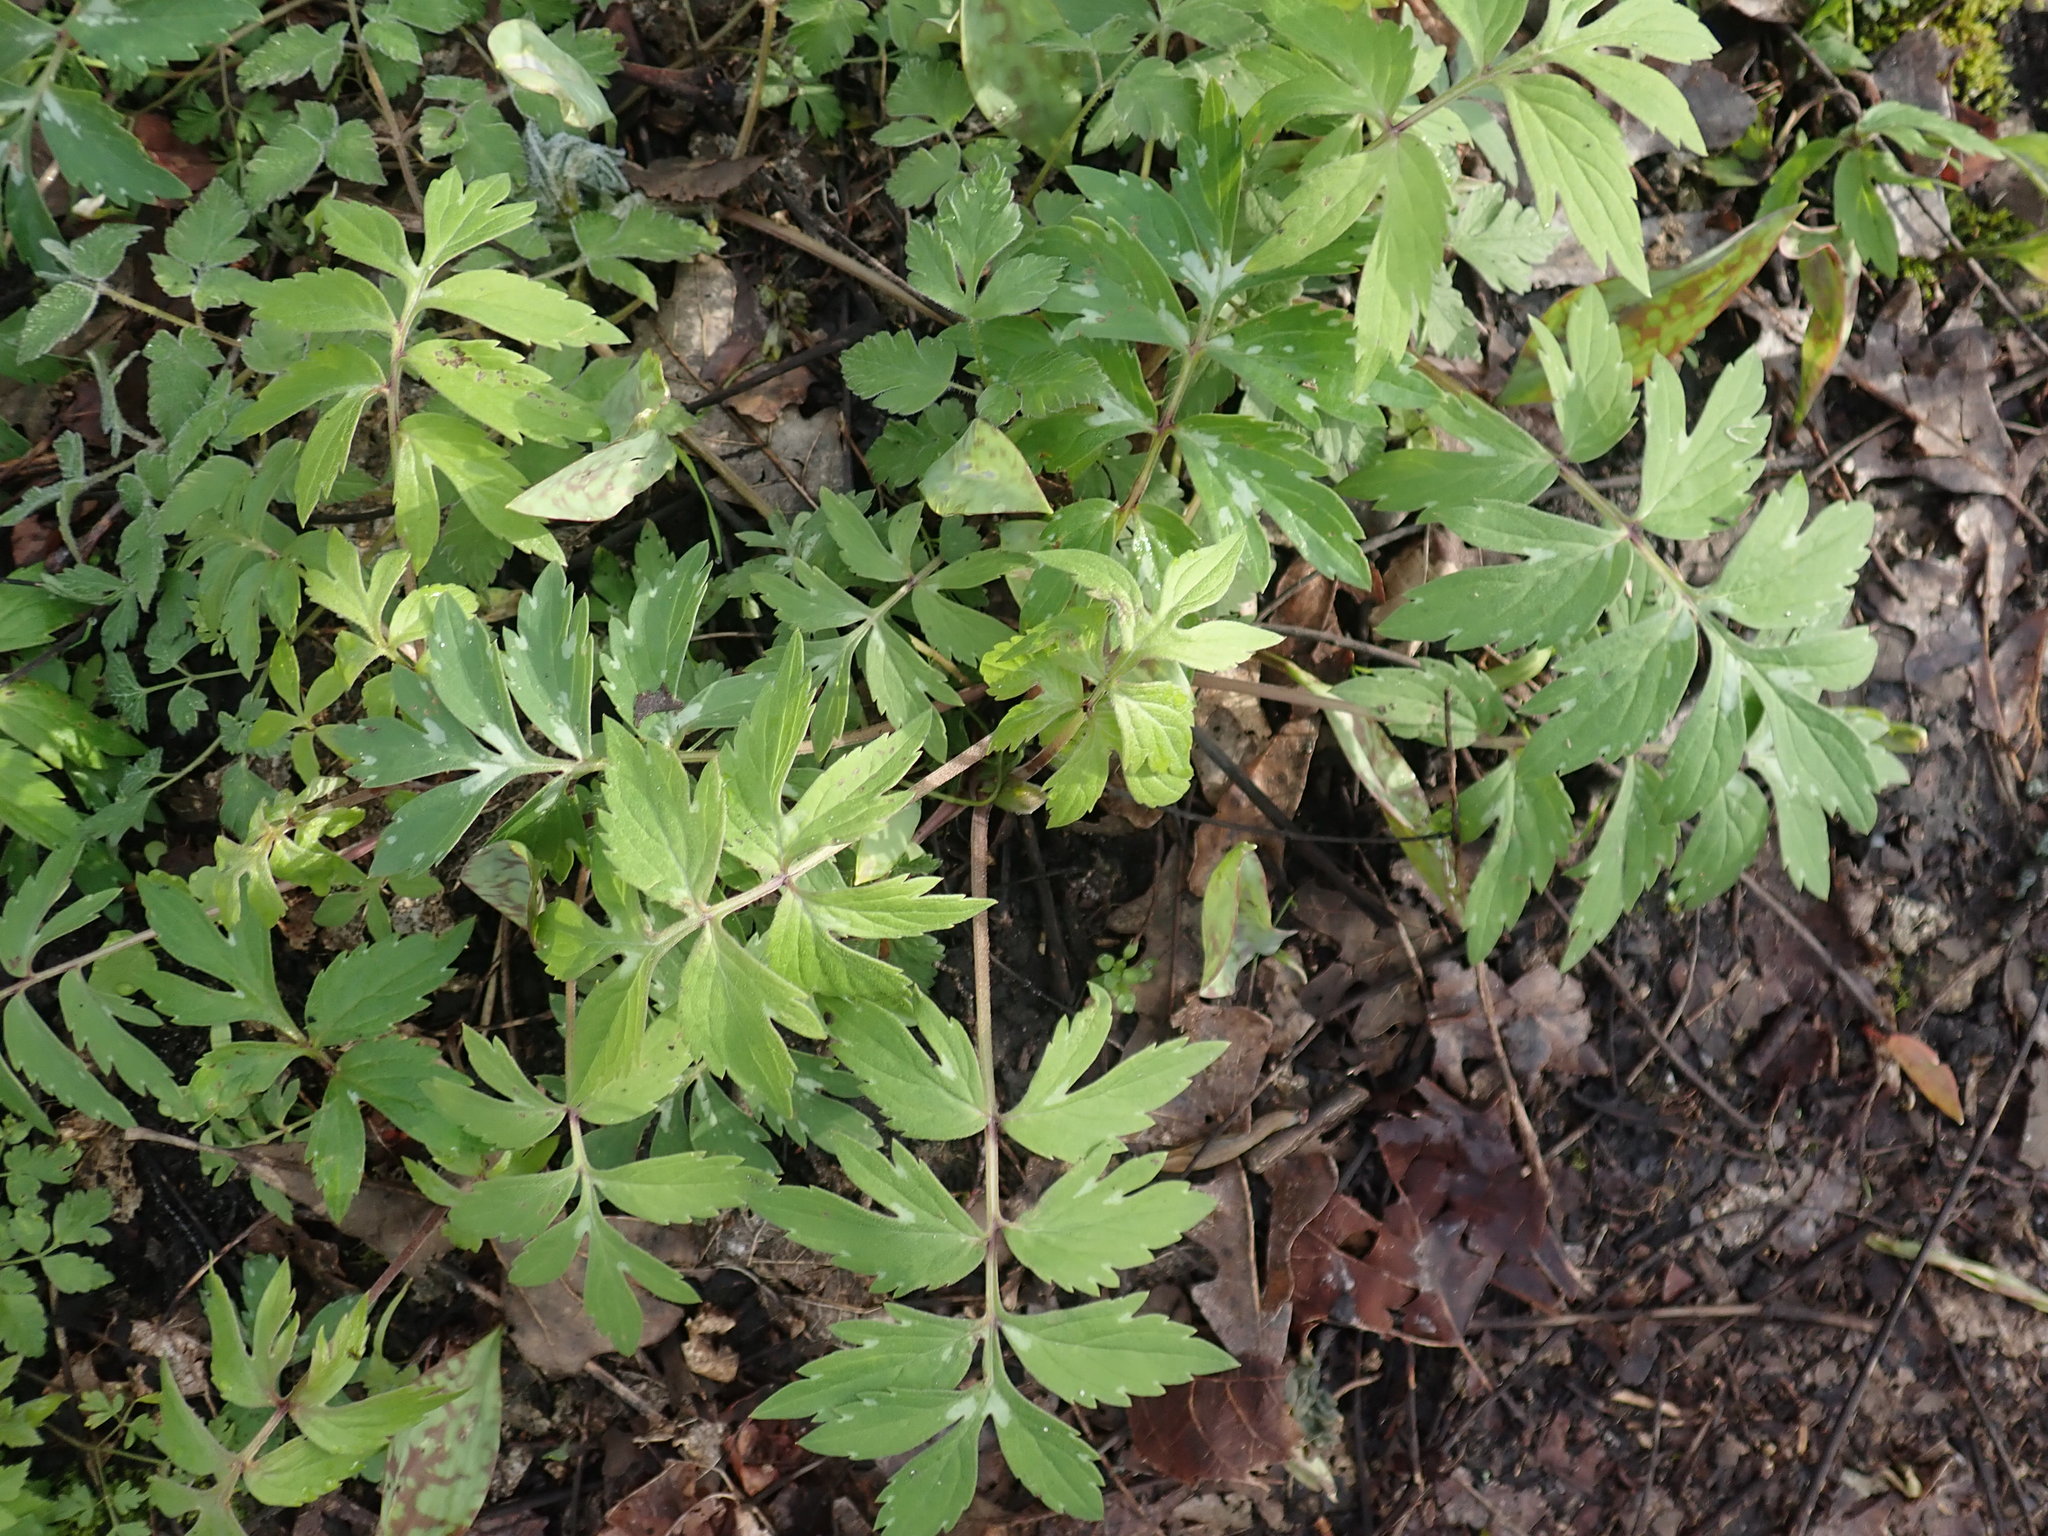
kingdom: Plantae
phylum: Tracheophyta
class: Magnoliopsida
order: Boraginales
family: Hydrophyllaceae
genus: Hydrophyllum
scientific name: Hydrophyllum virginianum
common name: Virginia waterleaf
